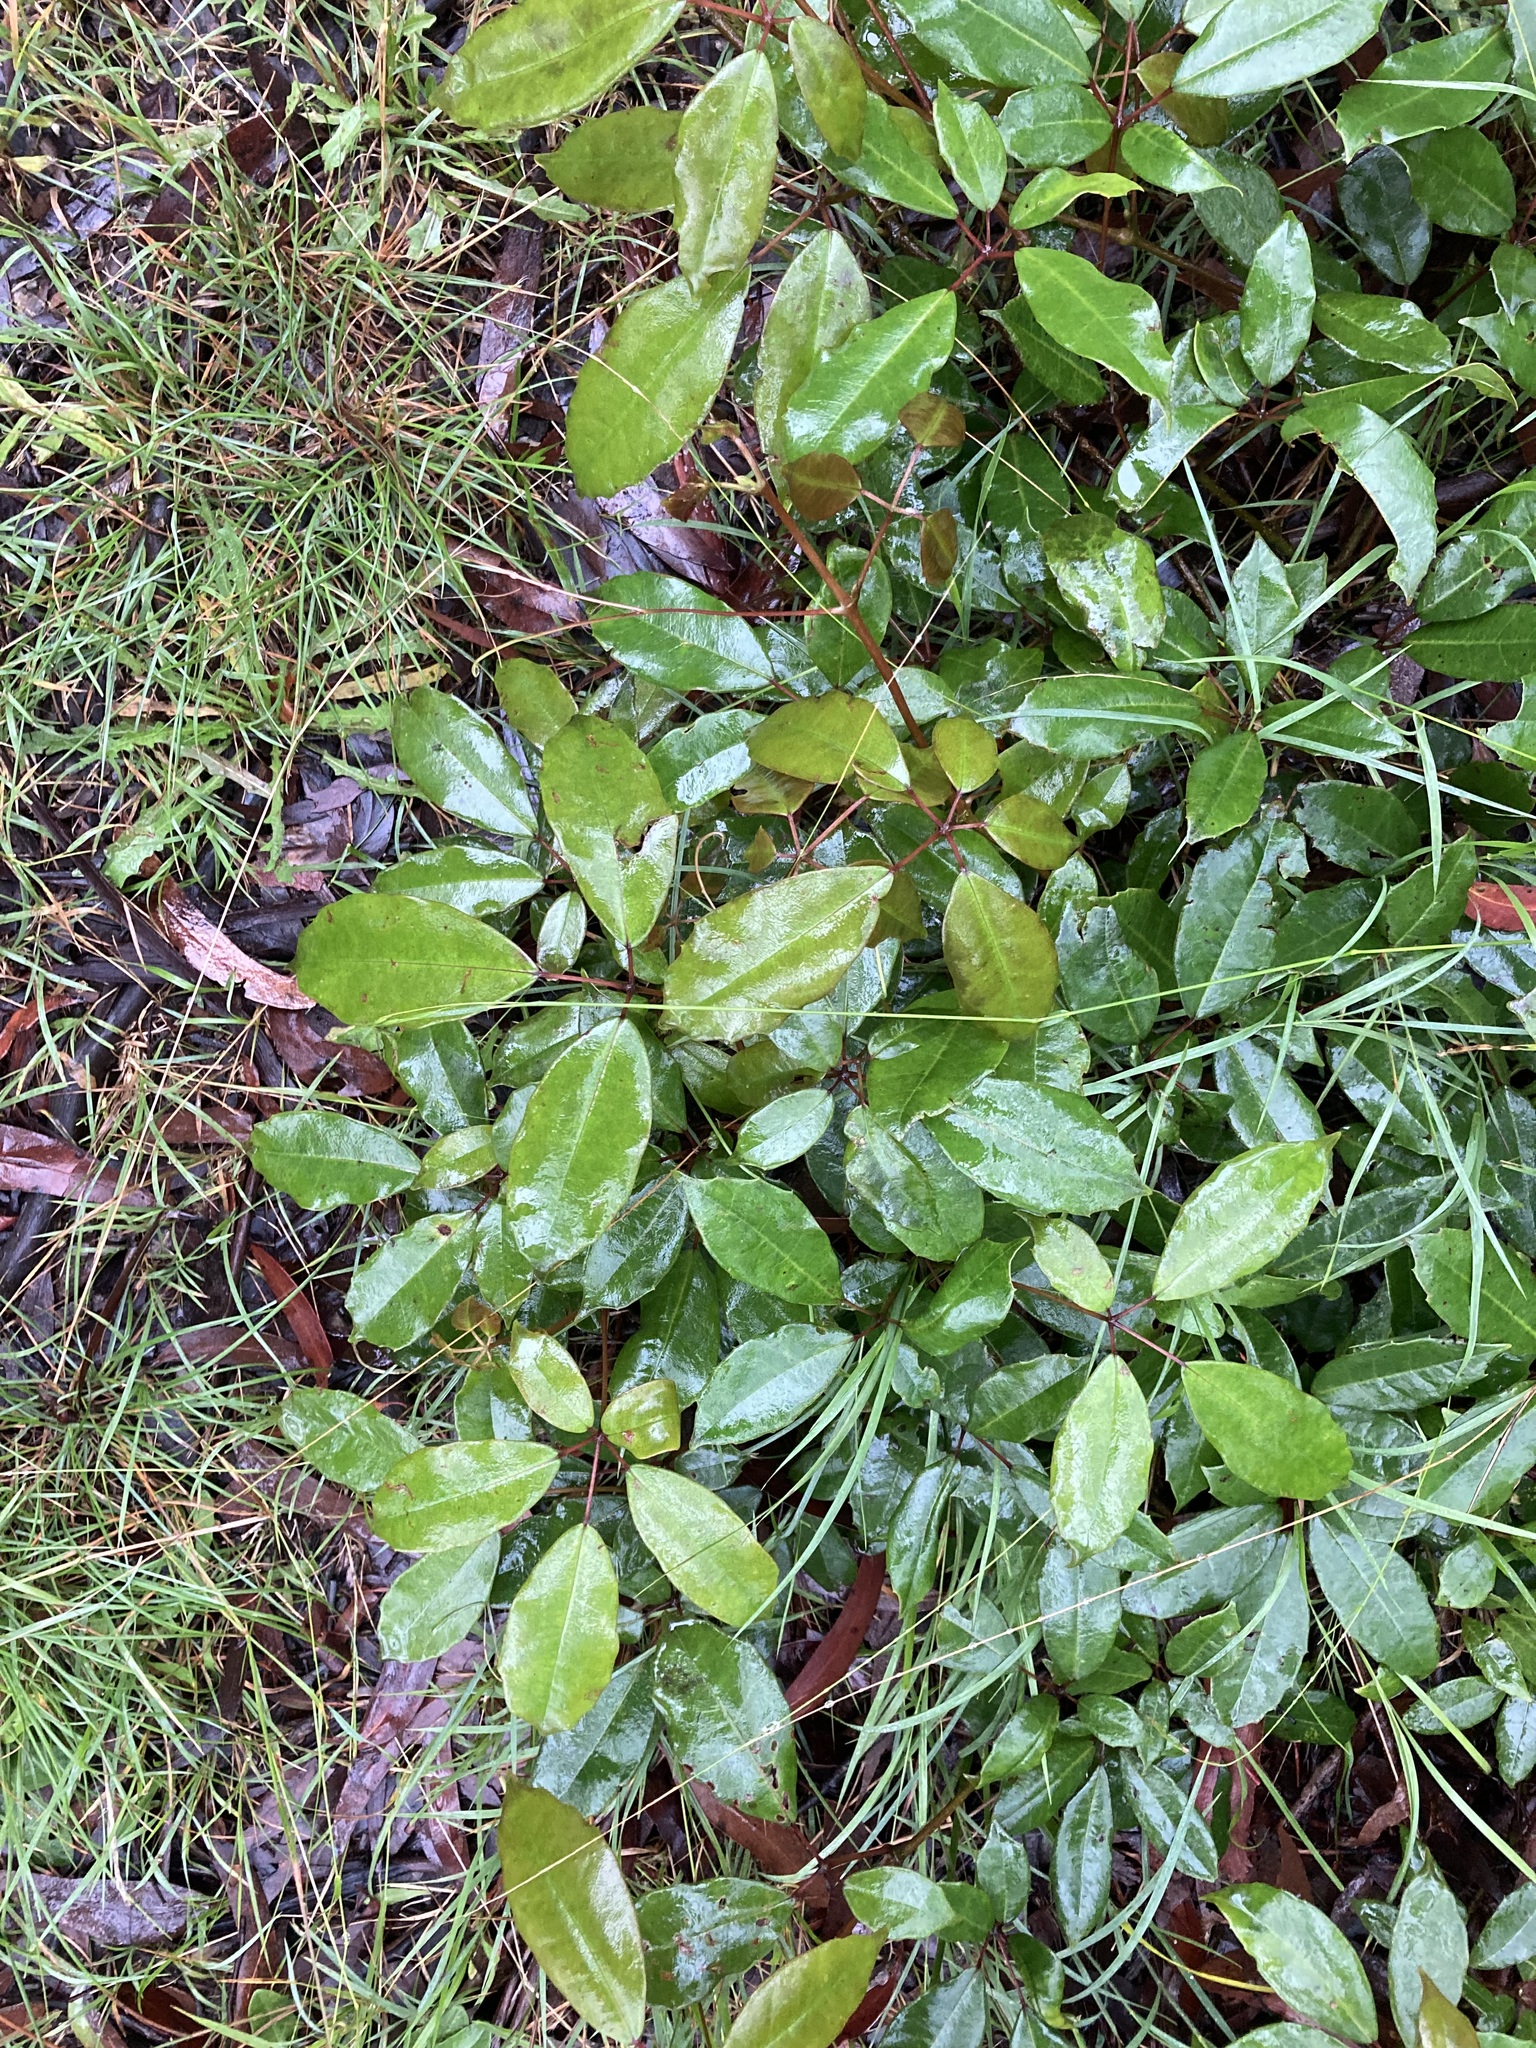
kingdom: Plantae
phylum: Tracheophyta
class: Magnoliopsida
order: Vitales
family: Vitaceae
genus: Nothocissus
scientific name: Nothocissus hypoglauca
